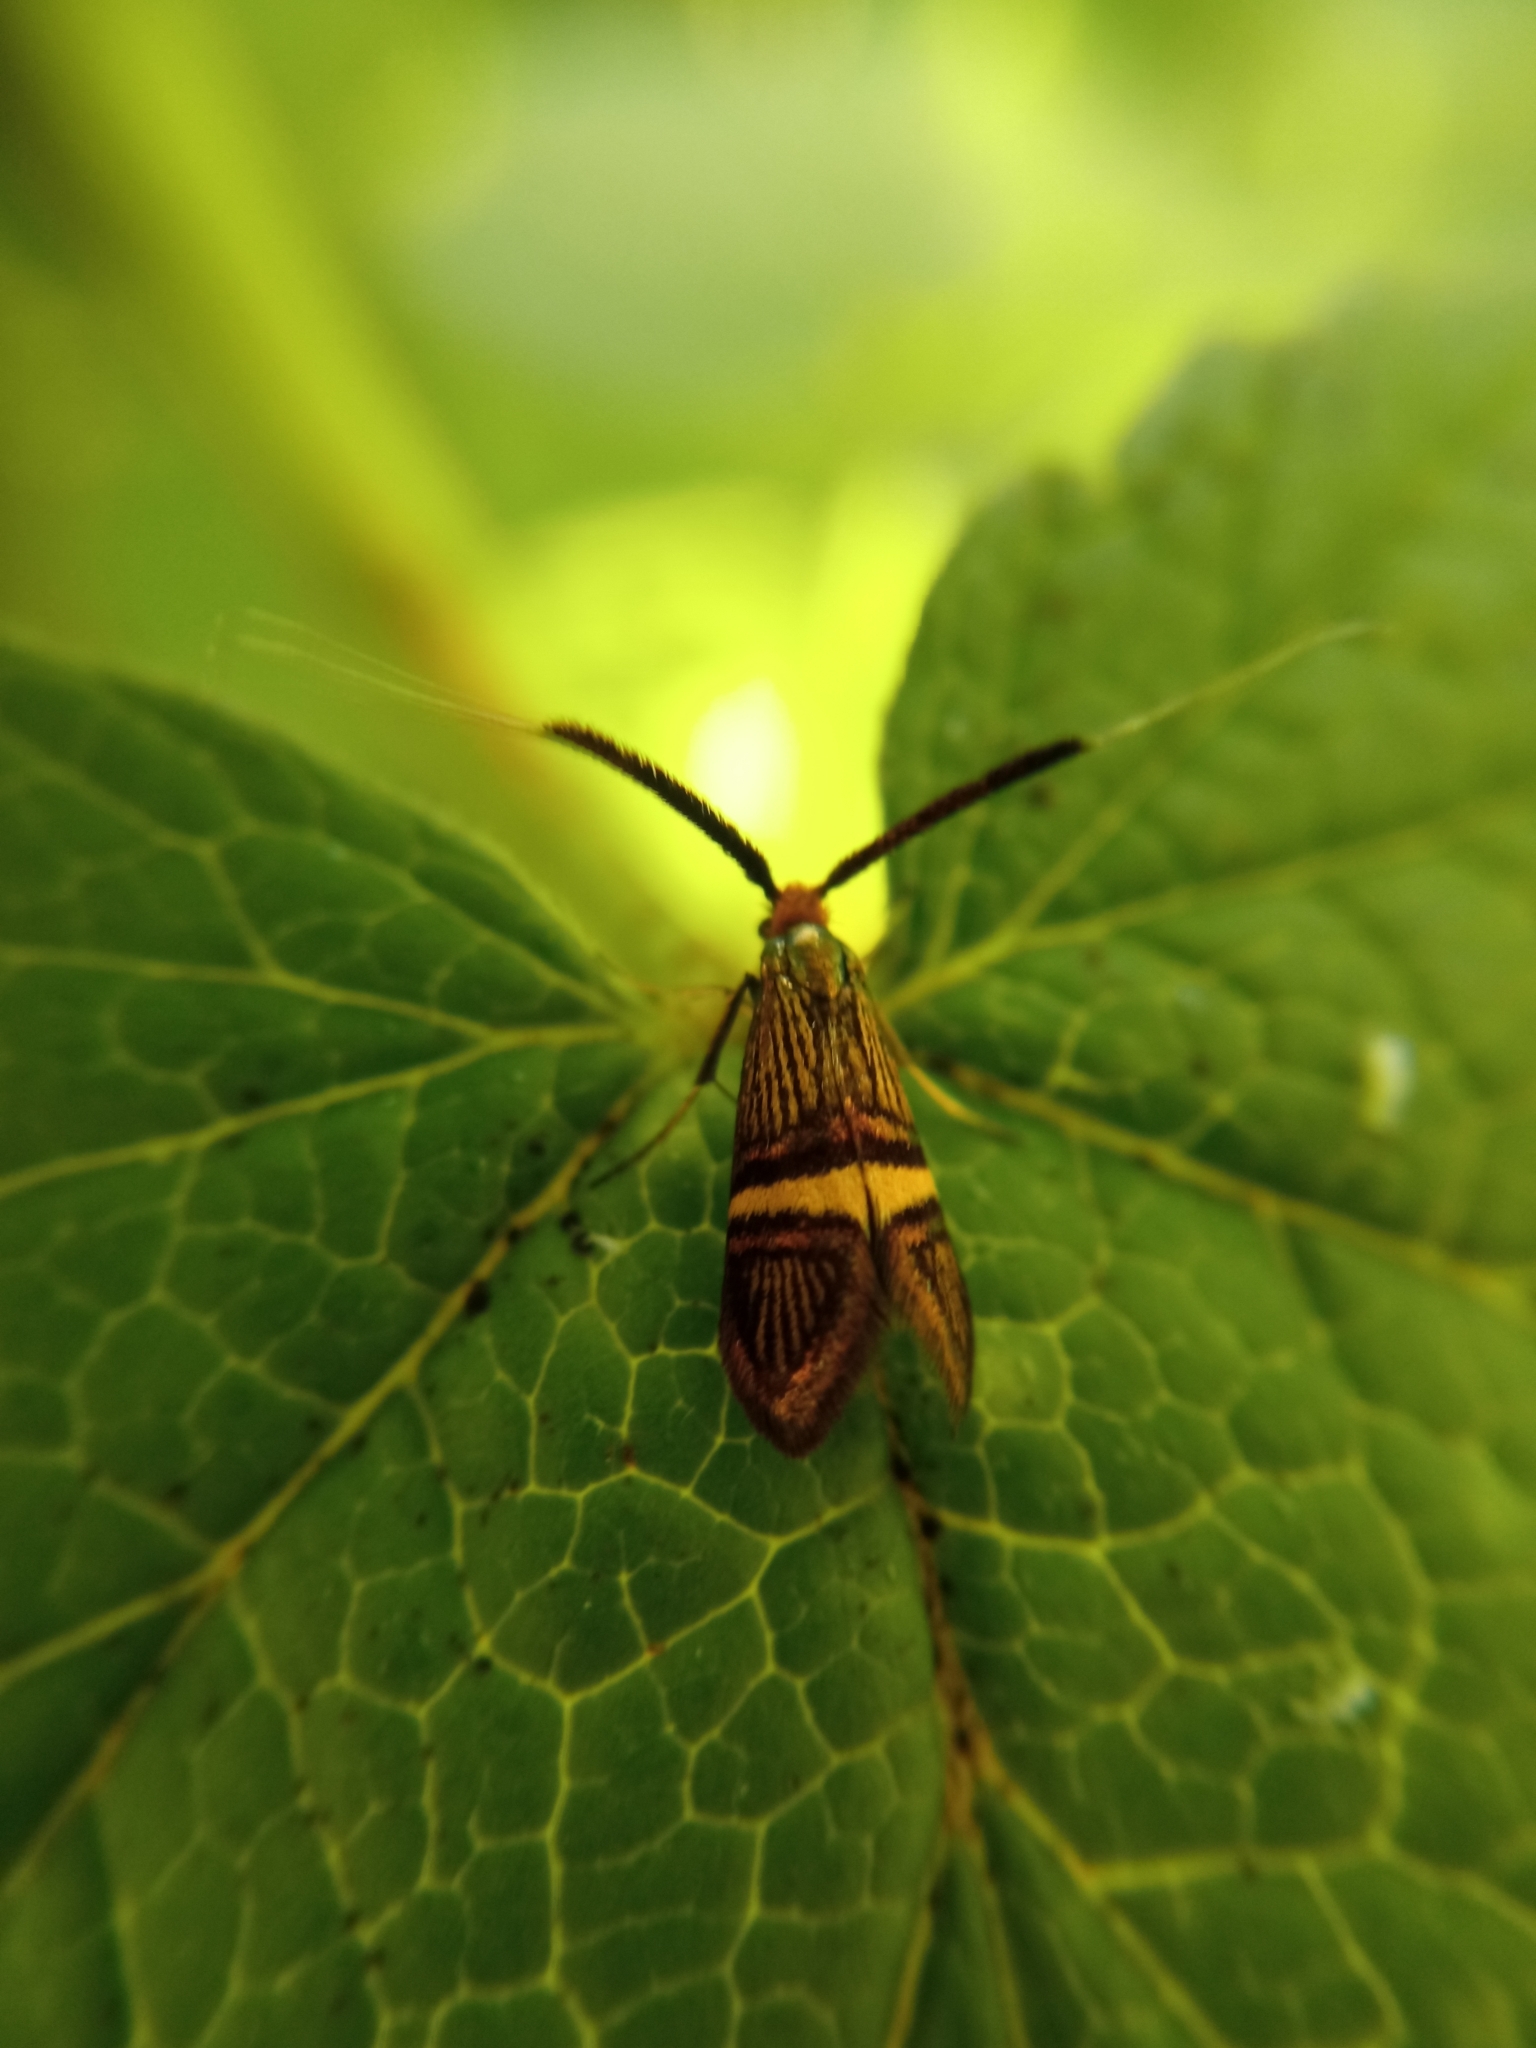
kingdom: Animalia
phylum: Arthropoda
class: Insecta
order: Lepidoptera
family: Adelidae
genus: Adela
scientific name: Adela croesella
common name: Small barred long-horn
